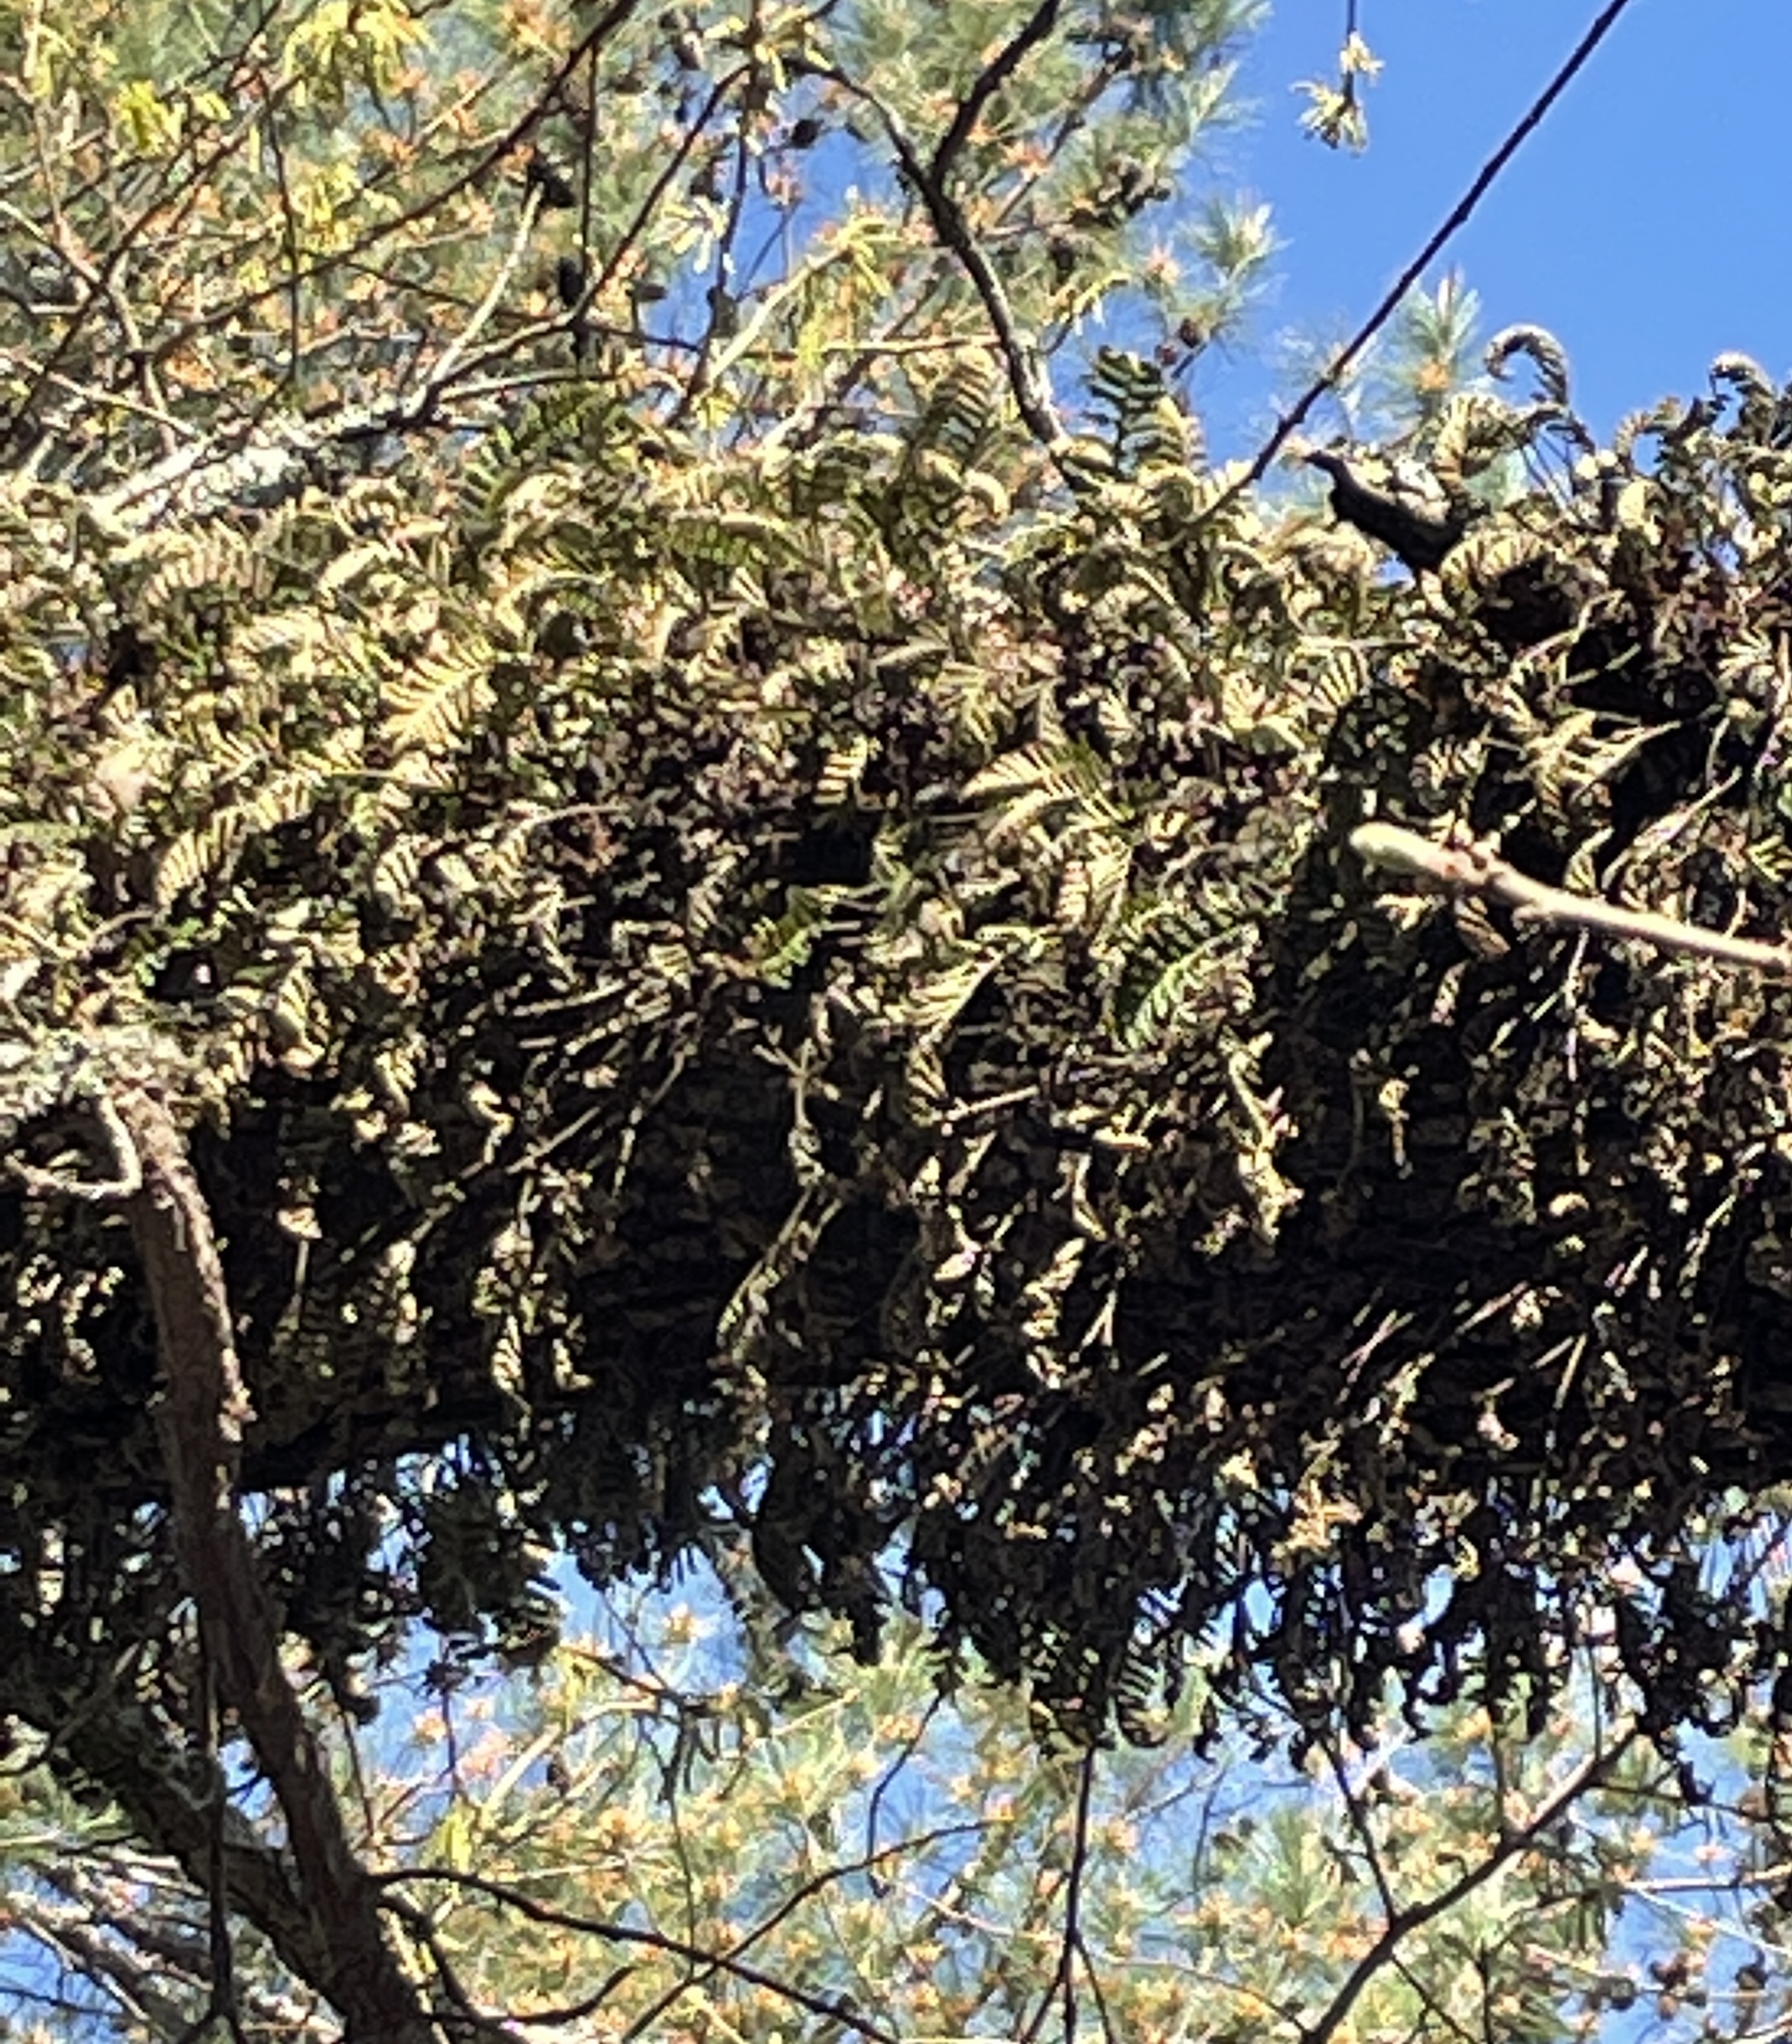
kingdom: Plantae
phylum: Tracheophyta
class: Polypodiopsida
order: Polypodiales
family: Polypodiaceae
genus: Pleopeltis
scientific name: Pleopeltis michauxiana
